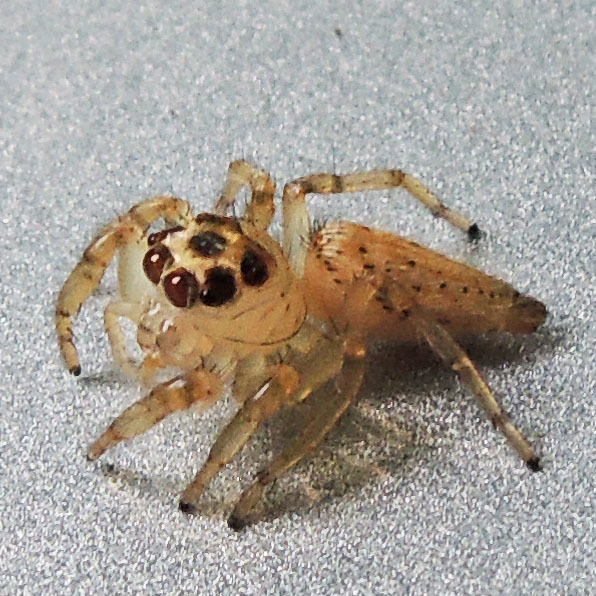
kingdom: Animalia
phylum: Arthropoda
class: Arachnida
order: Araneae
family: Salticidae
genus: Colonus
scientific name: Colonus sylvanus
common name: Jumping spiders
